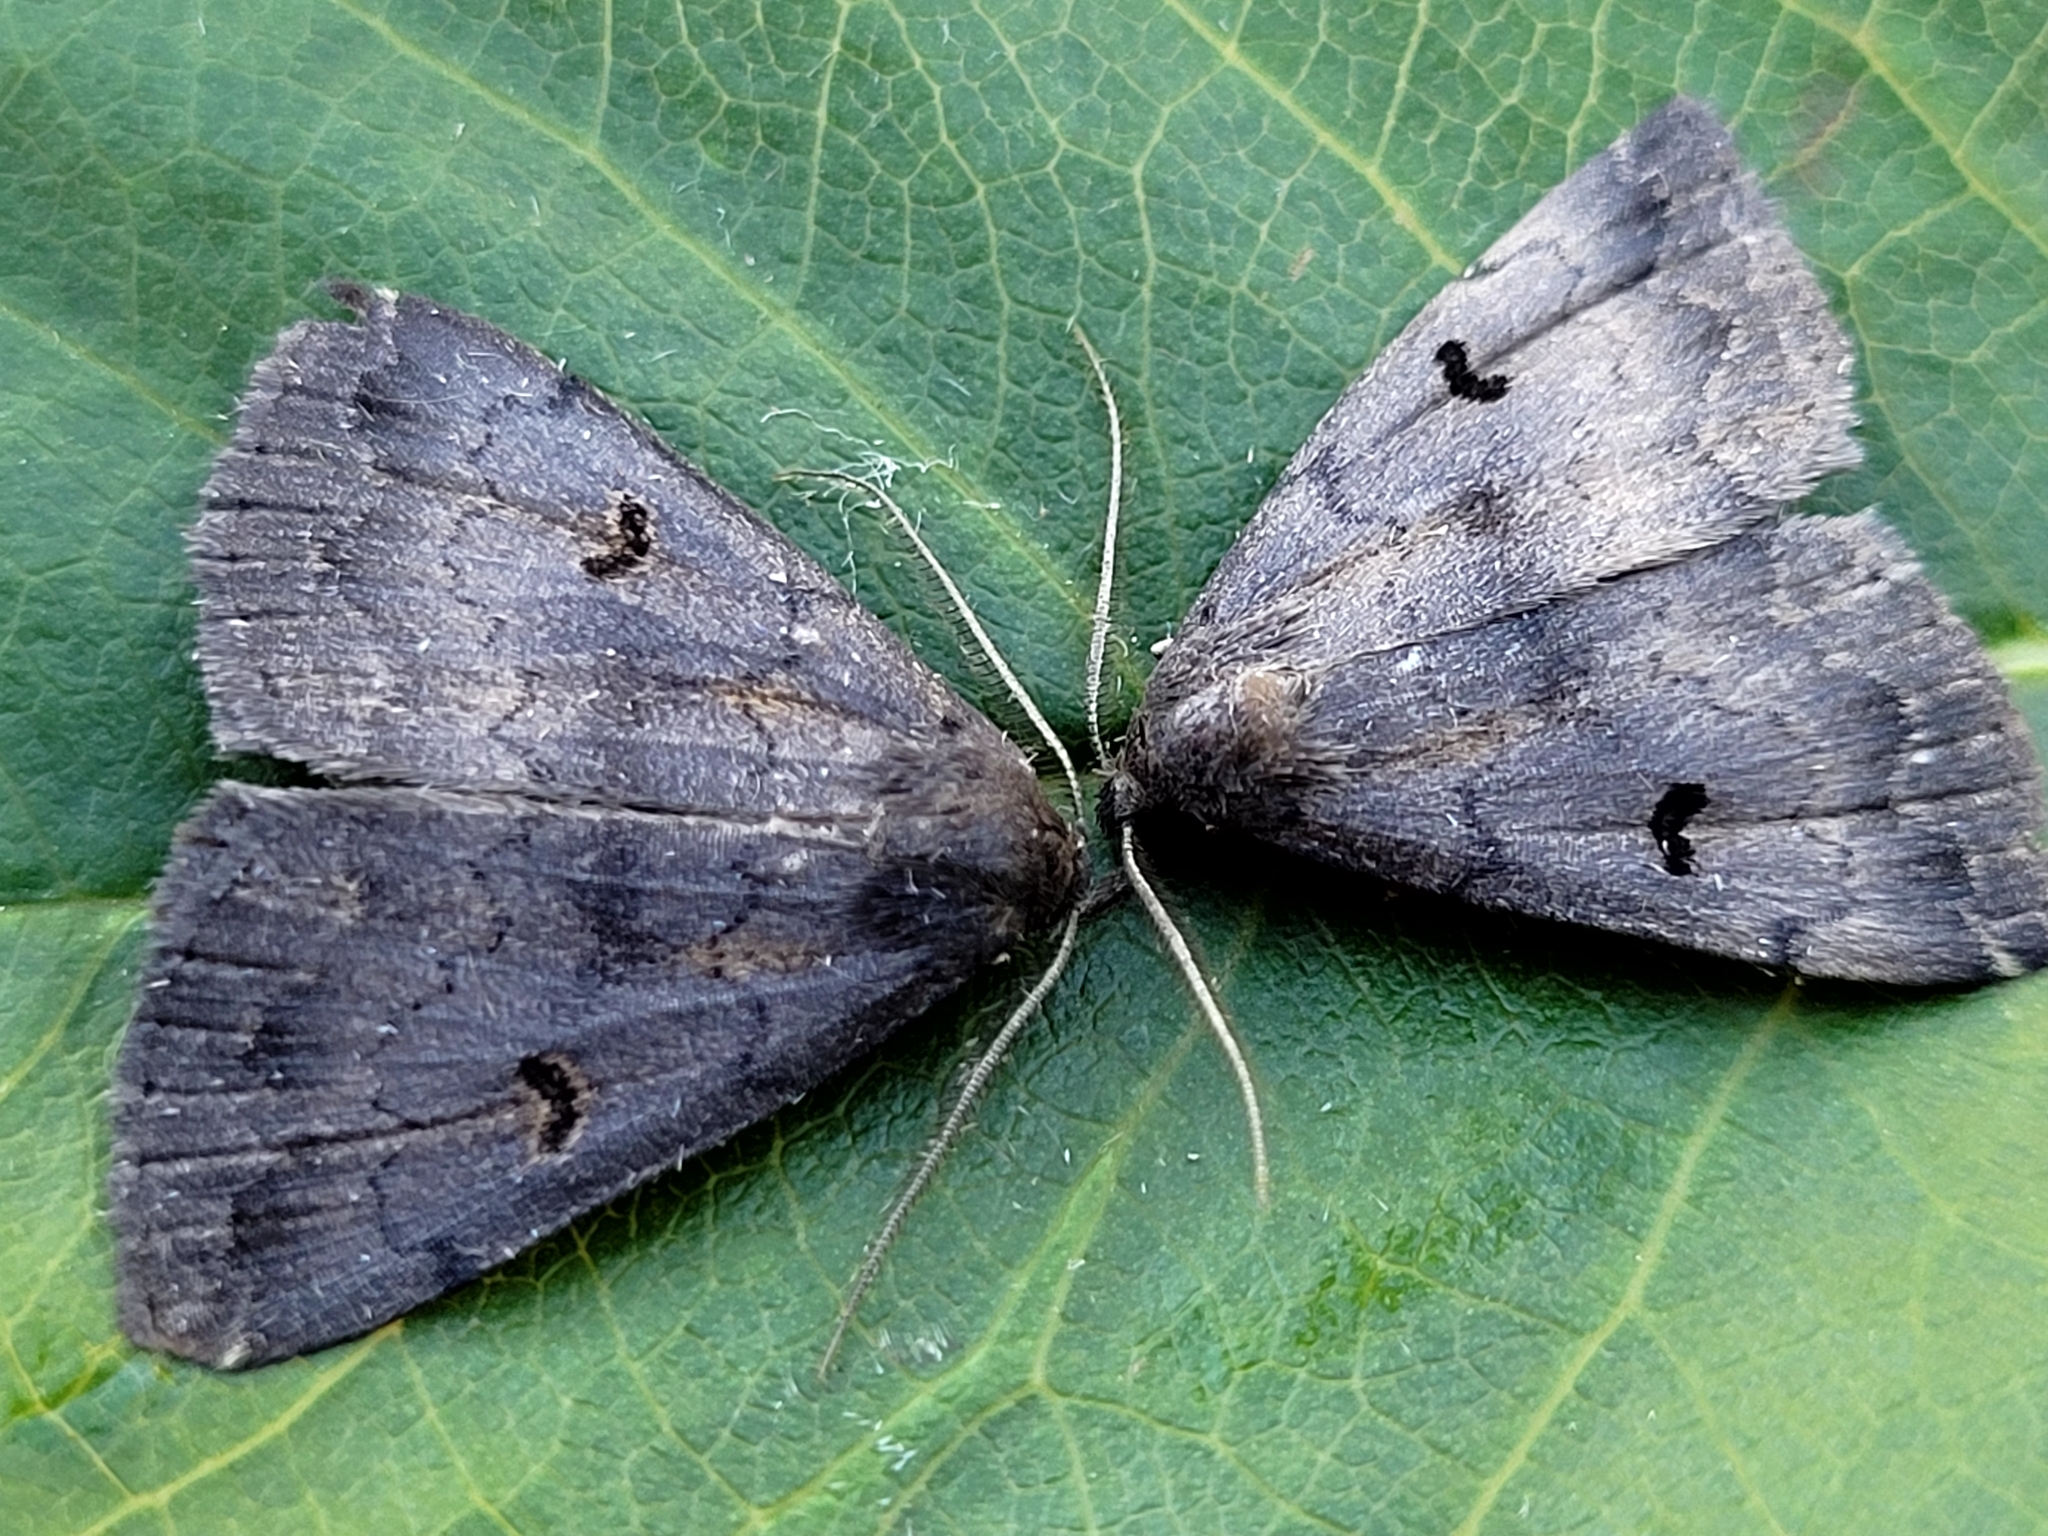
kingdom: Animalia
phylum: Arthropoda
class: Insecta
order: Lepidoptera
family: Erebidae
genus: Phalaenostola
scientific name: Phalaenostola hanhami
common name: Hanham's owlet
